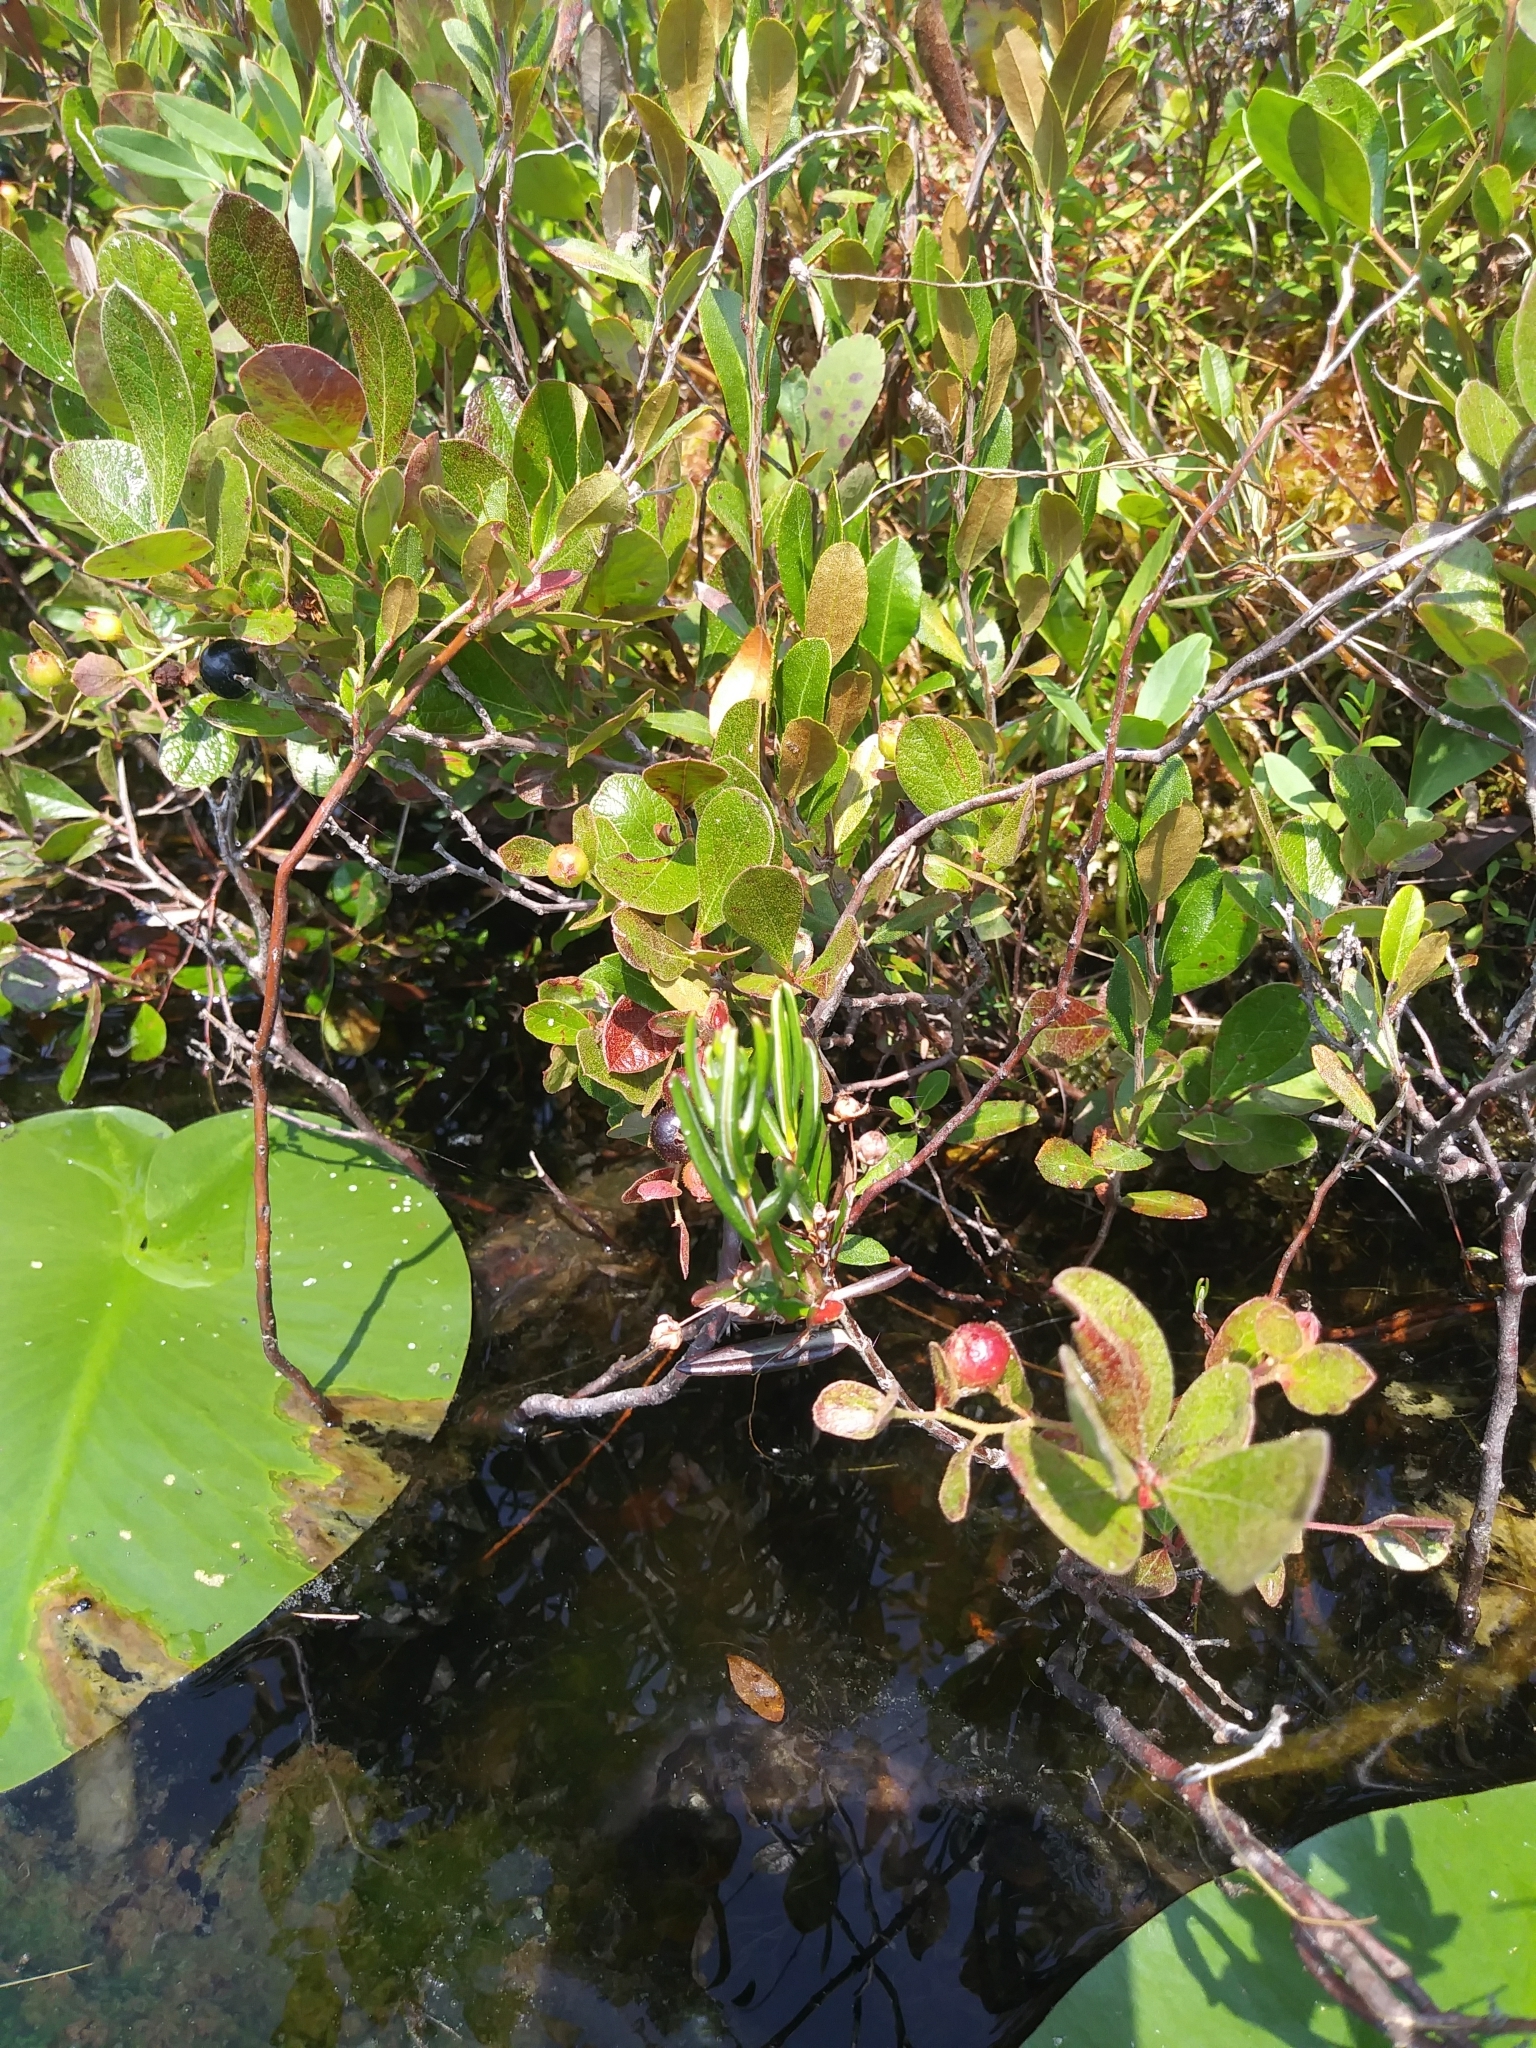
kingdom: Plantae
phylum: Tracheophyta
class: Magnoliopsida
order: Ericales
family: Ericaceae
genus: Kalmia
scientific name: Kalmia polifolia
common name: Bog-laurel
